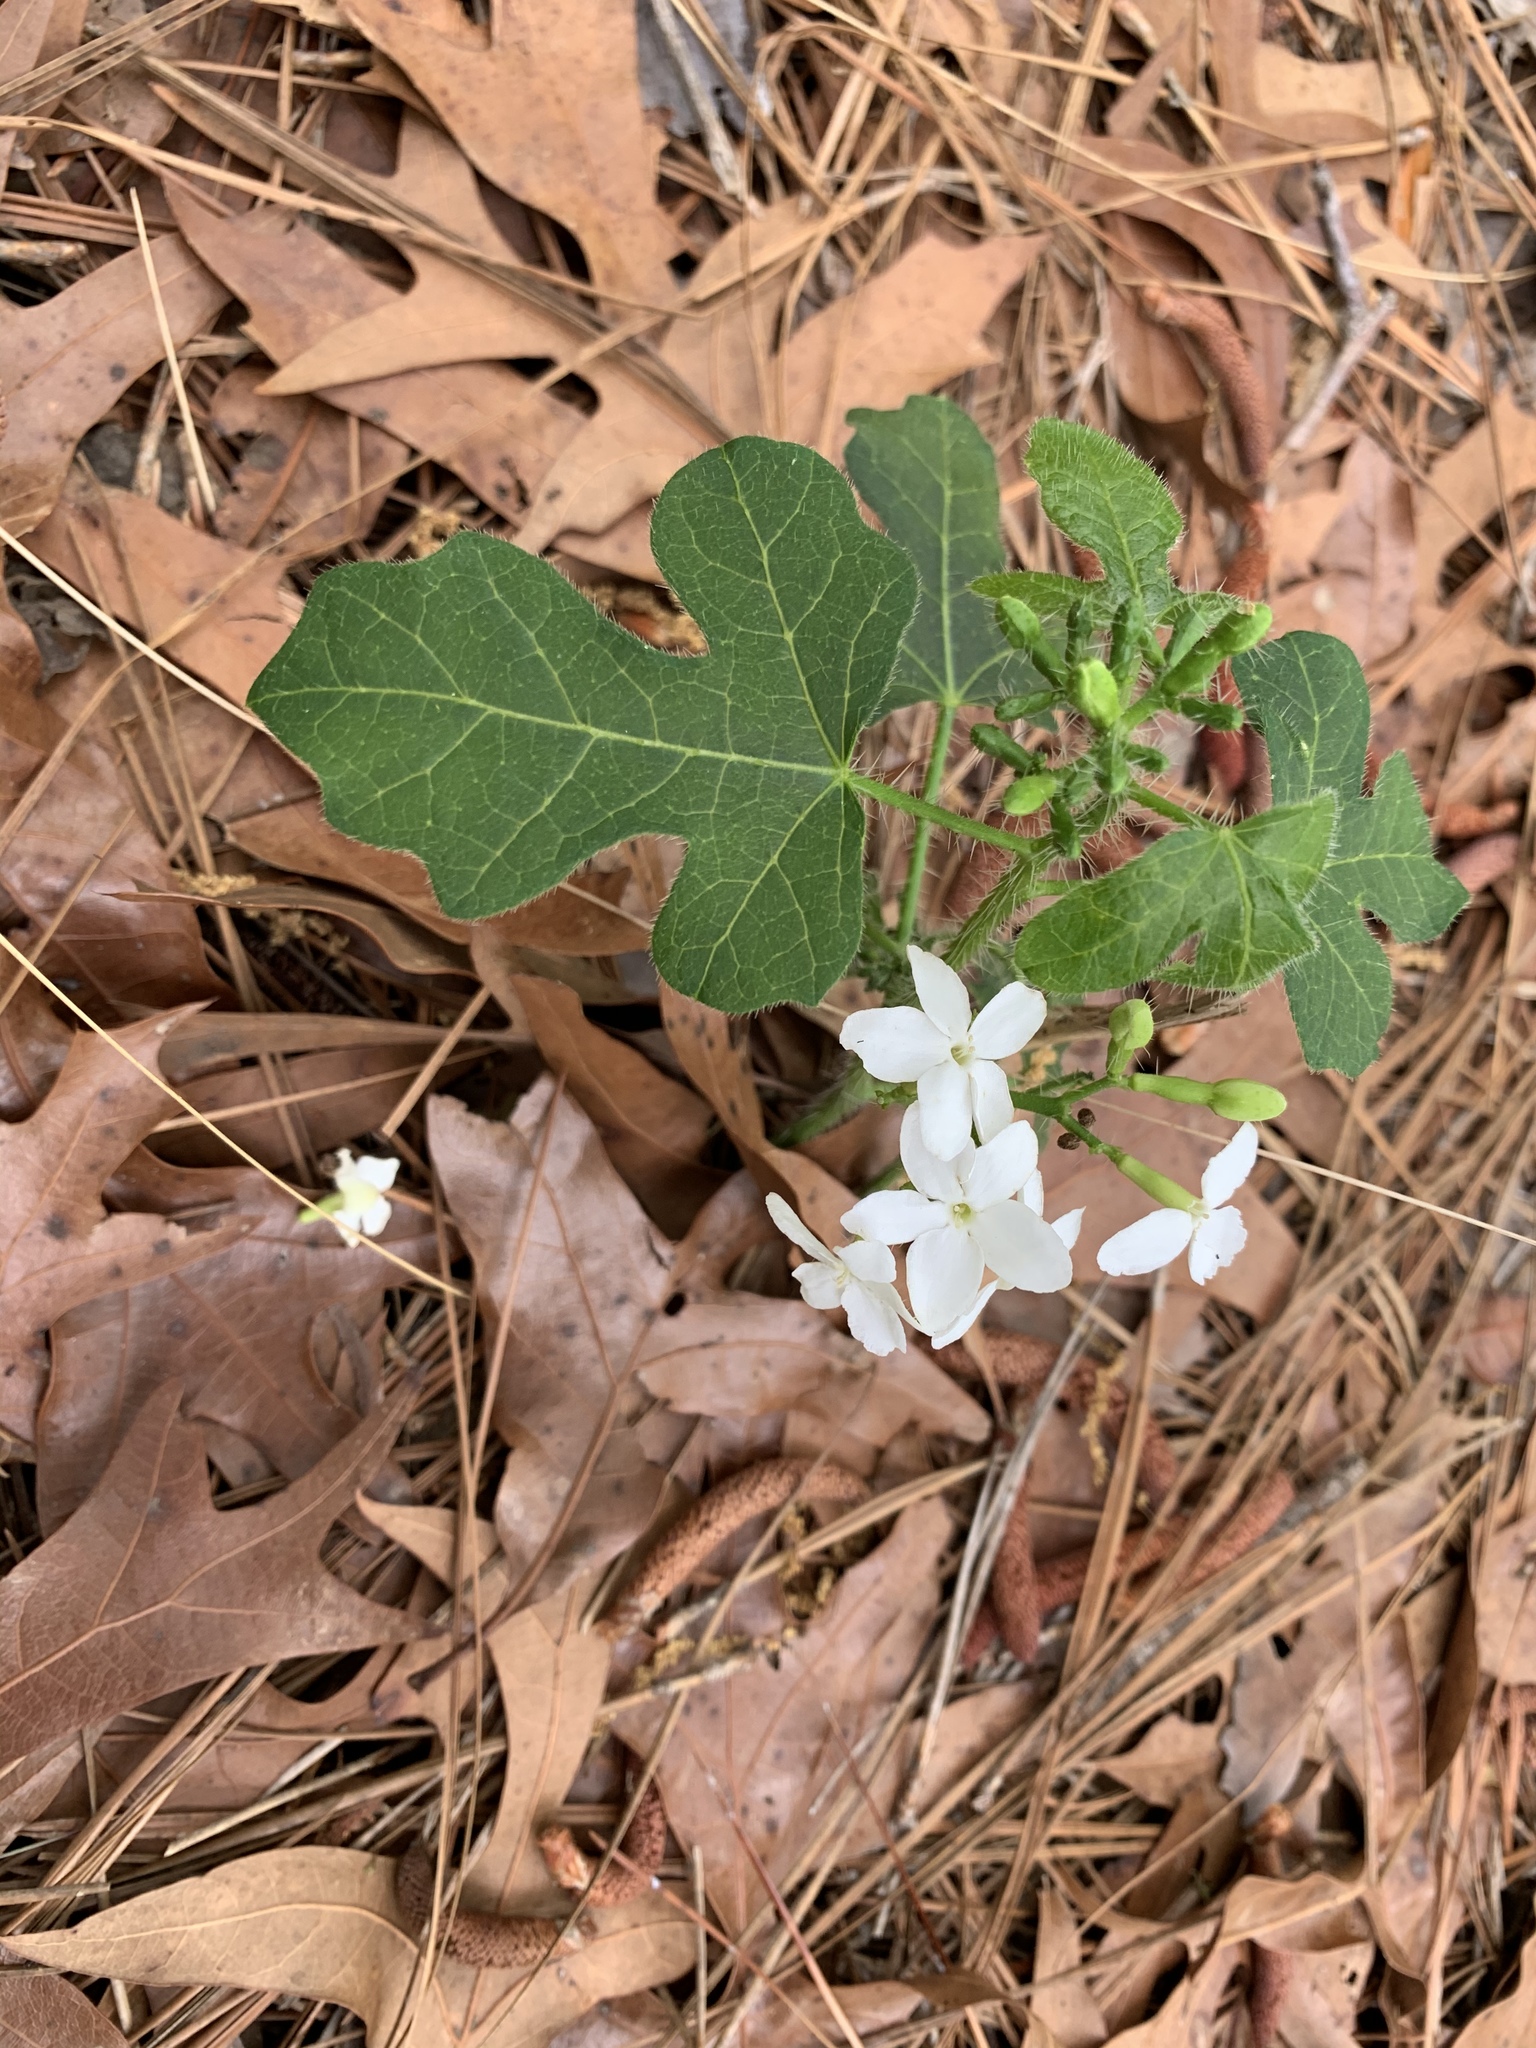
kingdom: Plantae
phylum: Tracheophyta
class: Magnoliopsida
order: Malpighiales
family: Euphorbiaceae
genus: Cnidoscolus
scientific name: Cnidoscolus stimulosus
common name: Bull-nettle
